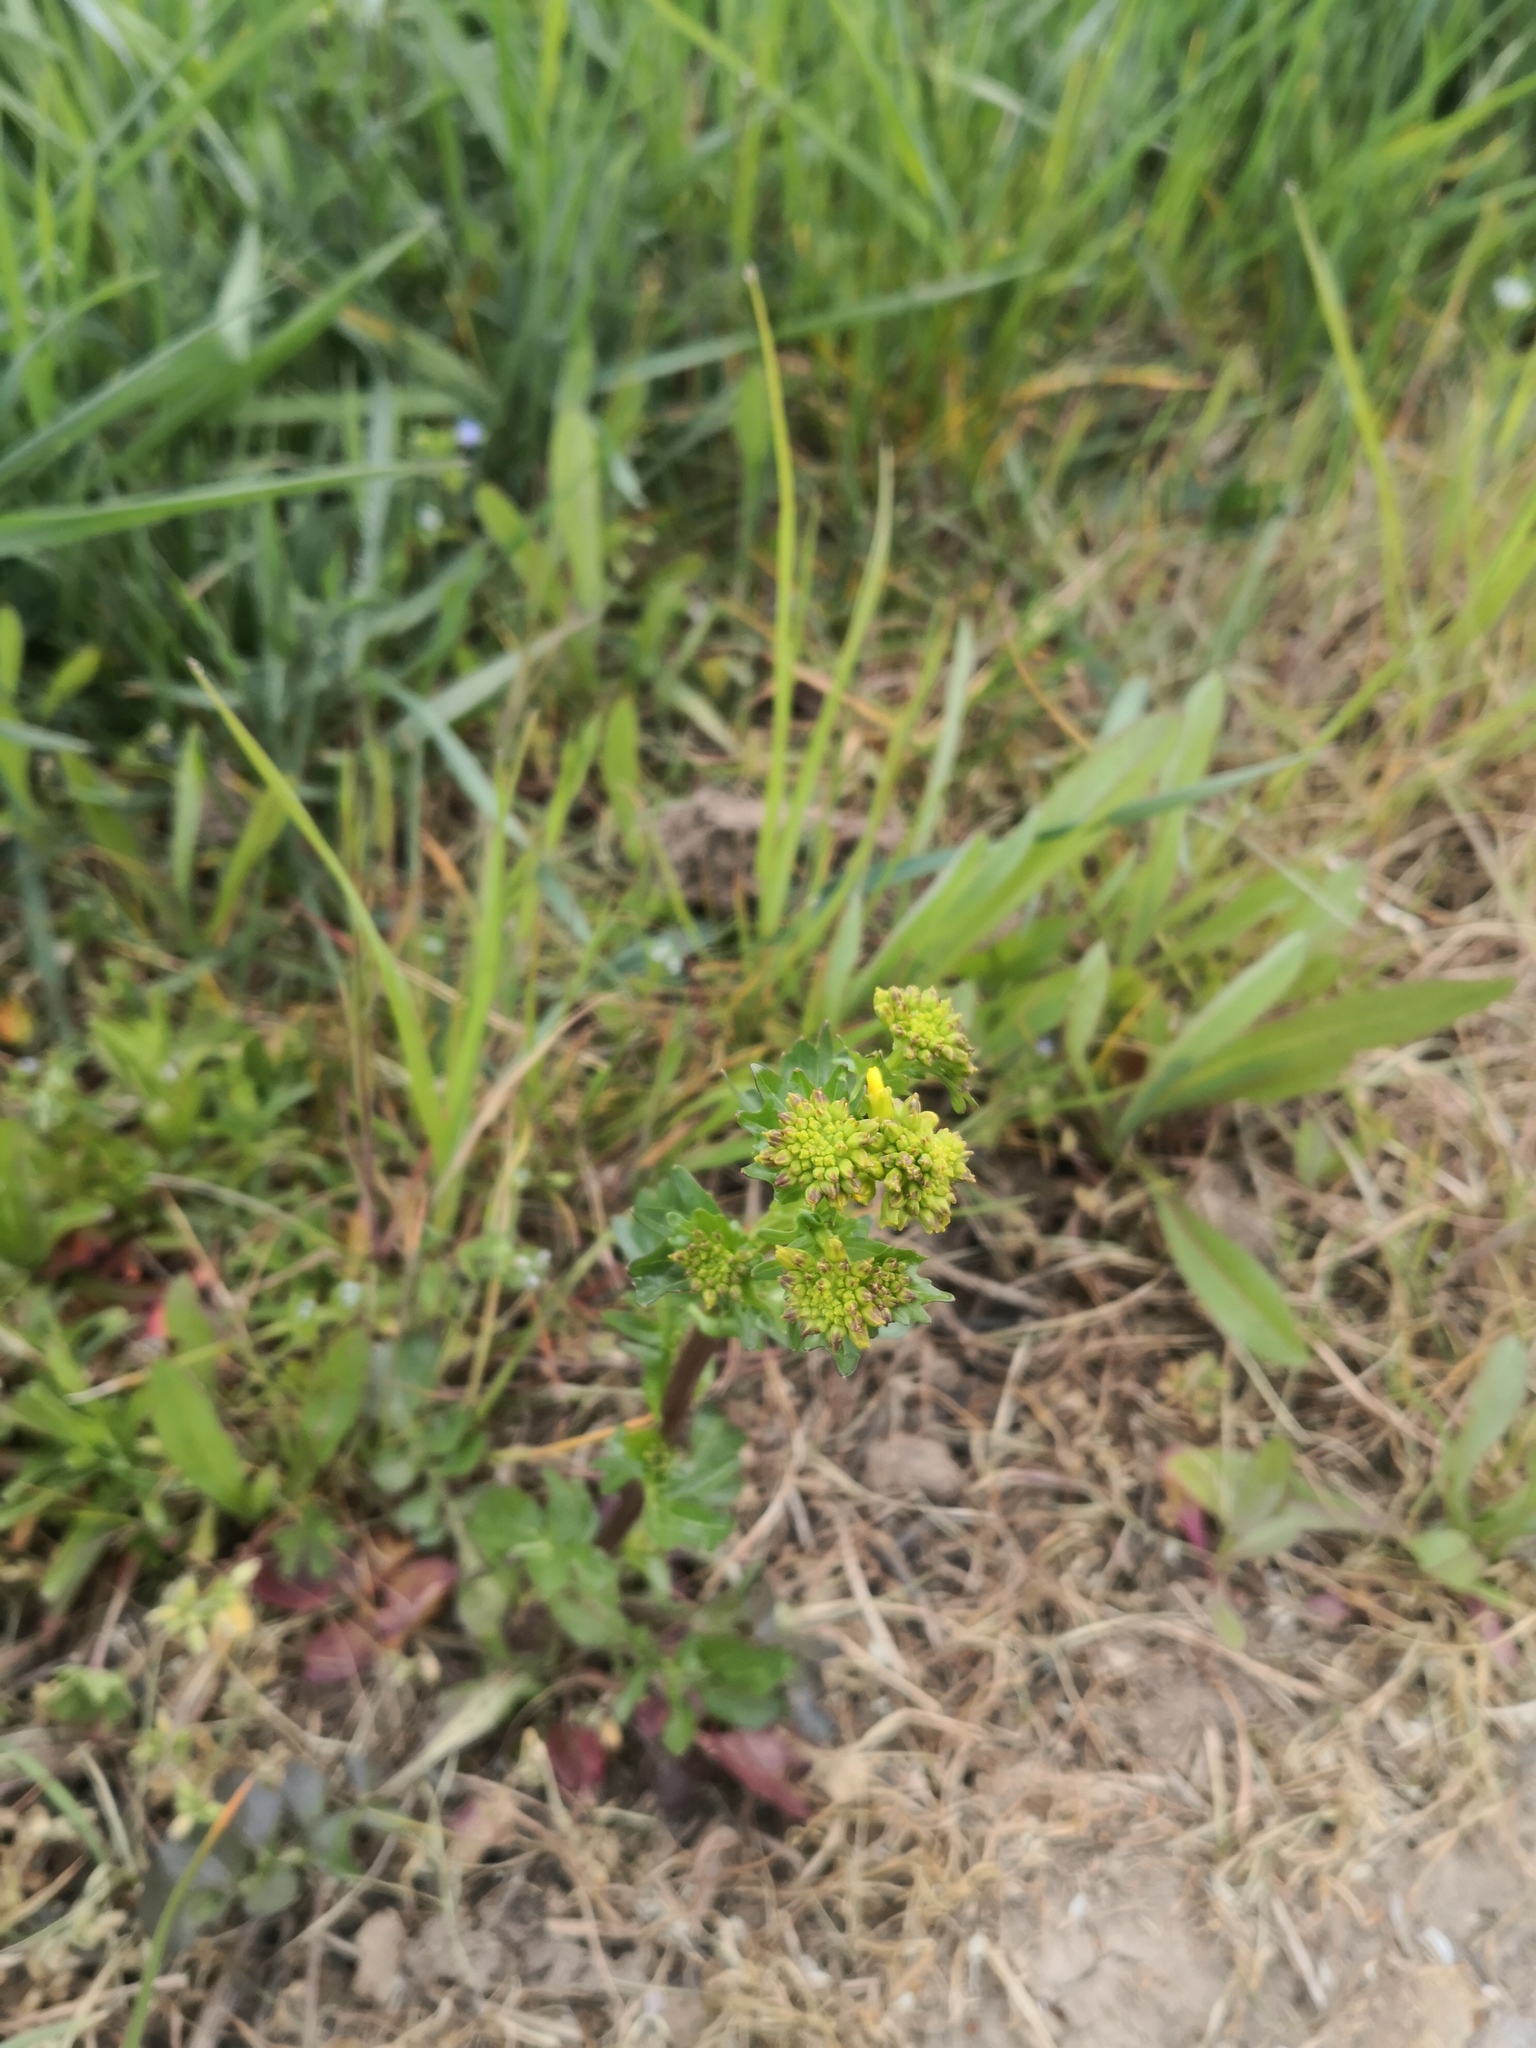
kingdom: Plantae
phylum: Tracheophyta
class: Magnoliopsida
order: Brassicales
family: Brassicaceae
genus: Barbarea
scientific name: Barbarea vulgaris
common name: Cressy-greens
